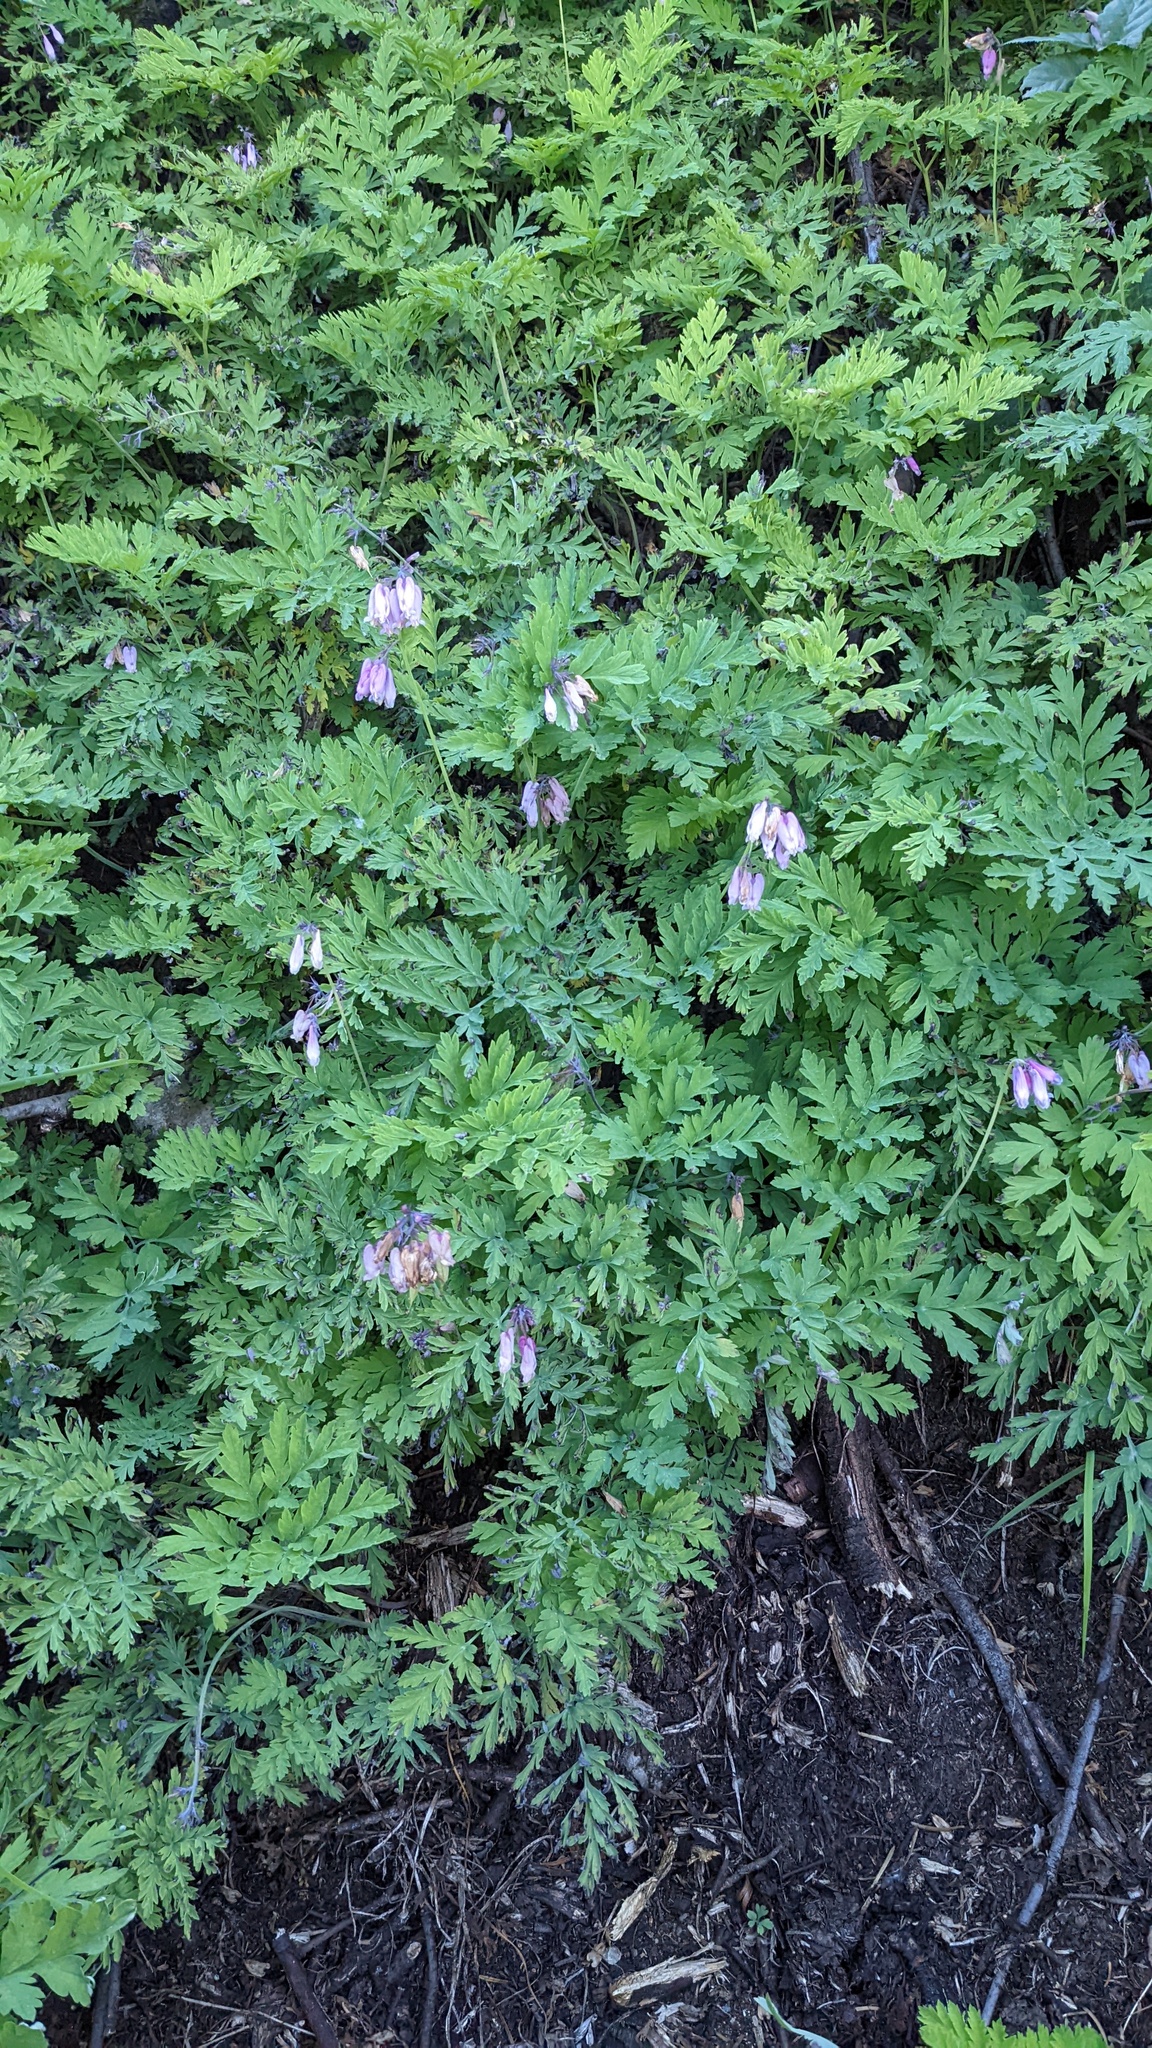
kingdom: Plantae
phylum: Tracheophyta
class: Magnoliopsida
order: Ranunculales
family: Papaveraceae
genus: Dicentra
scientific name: Dicentra formosa
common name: Bleeding-heart
